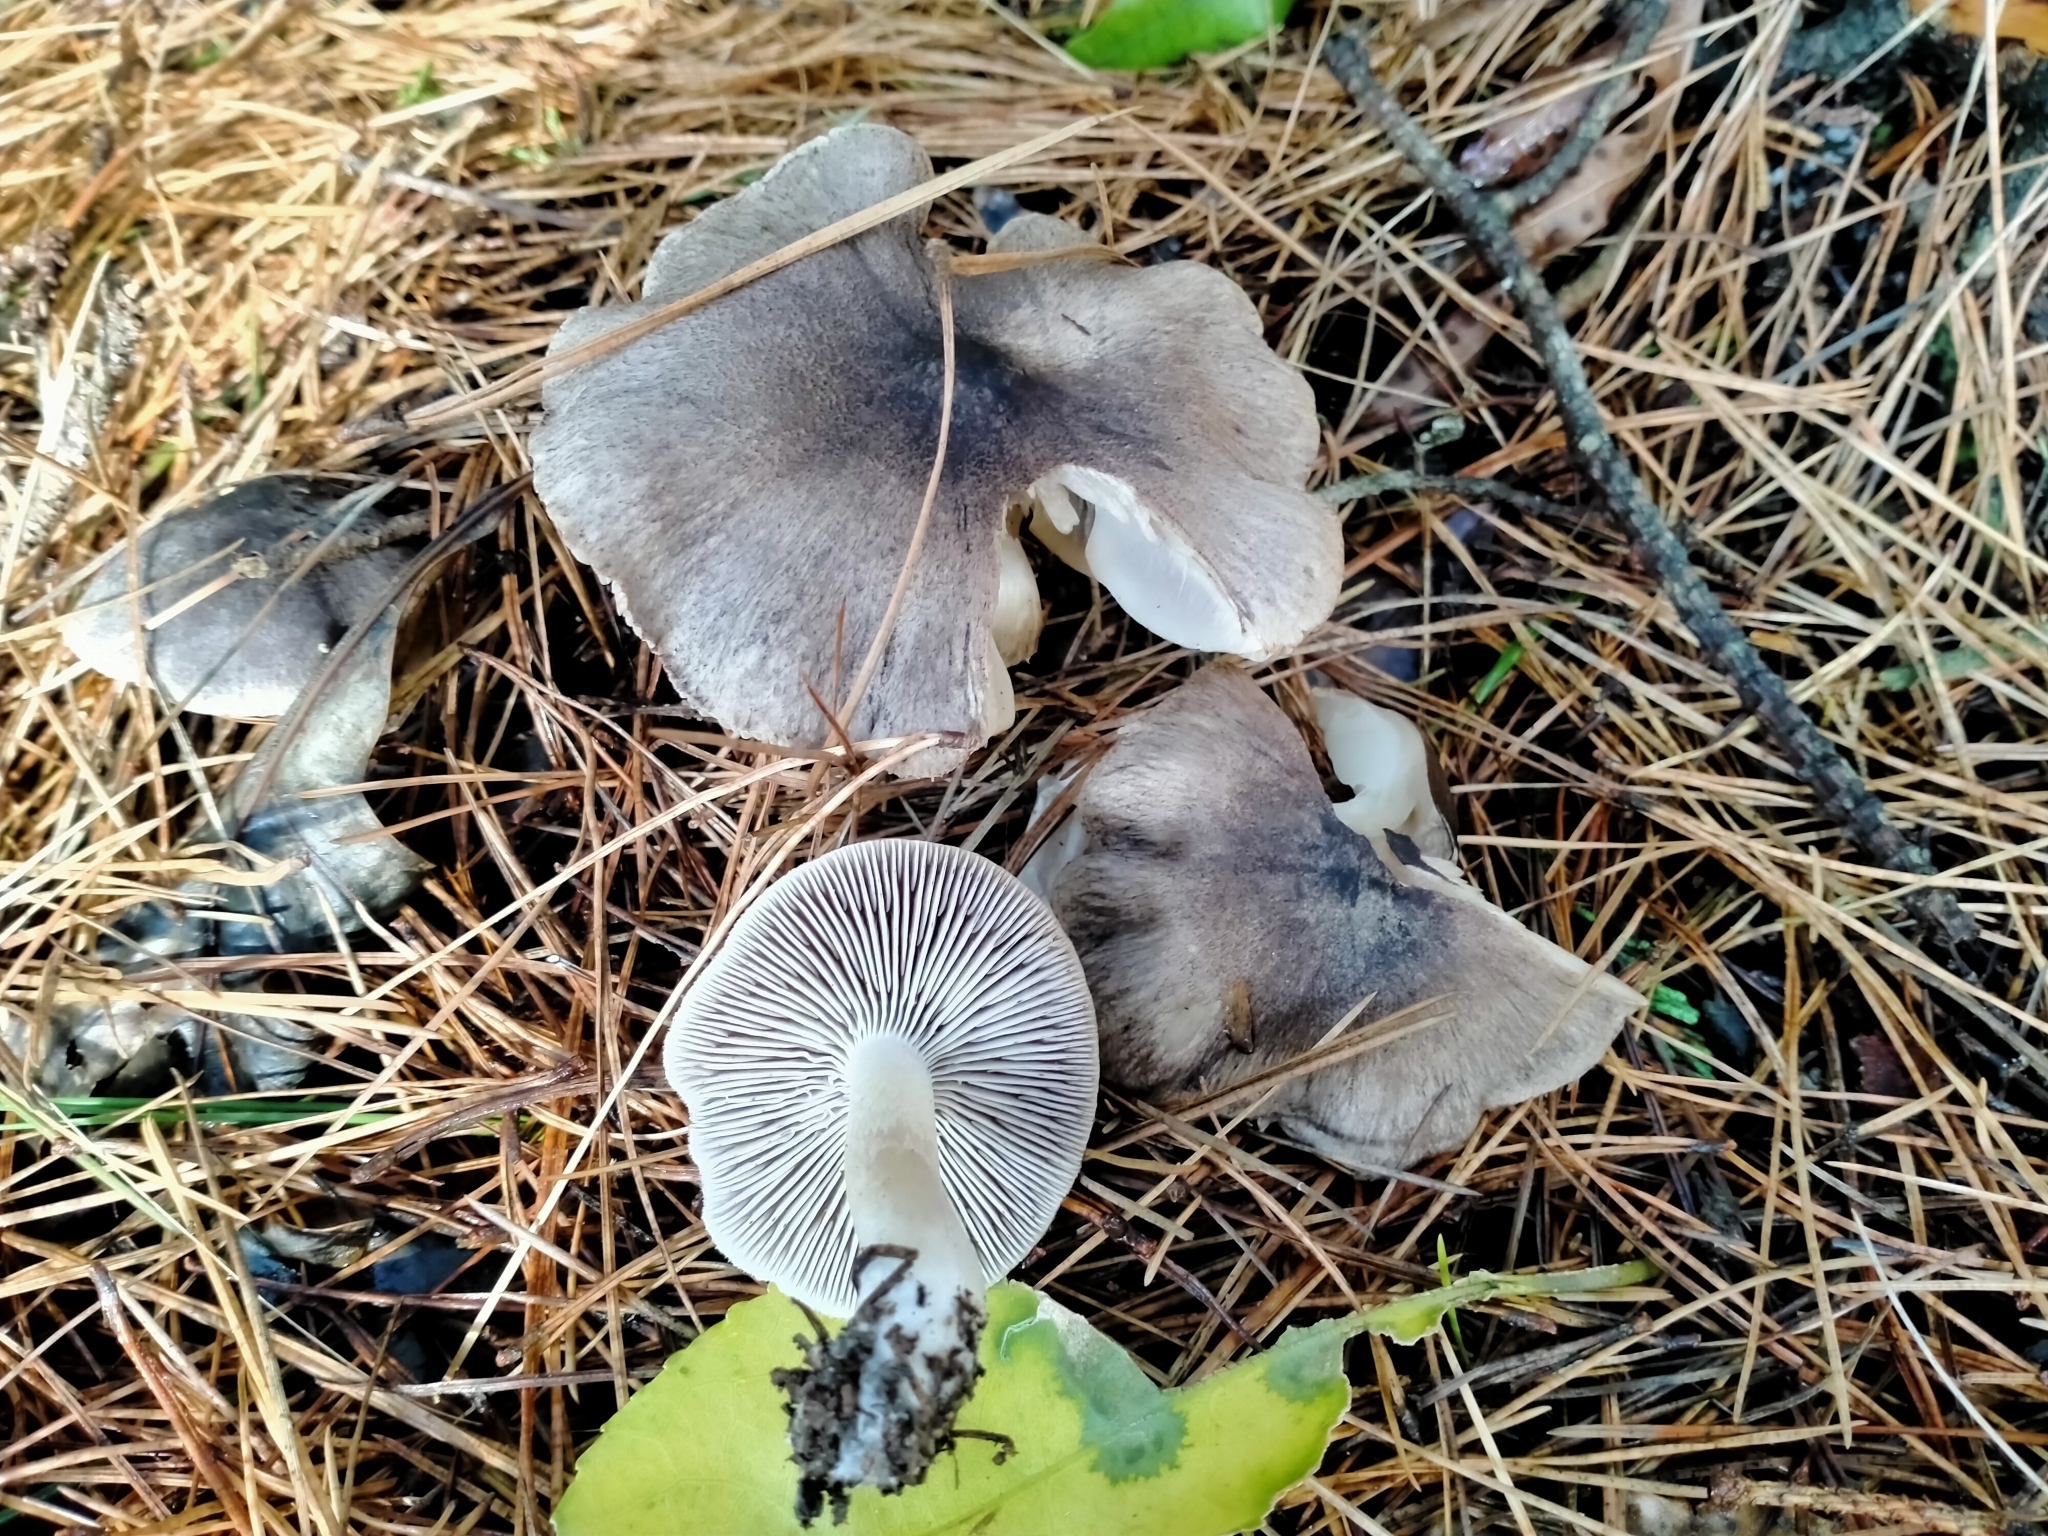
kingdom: Fungi
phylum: Basidiomycota
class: Agaricomycetes
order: Agaricales
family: Tricholomataceae
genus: Tricholoma
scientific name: Tricholoma terreum
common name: Grey knight
